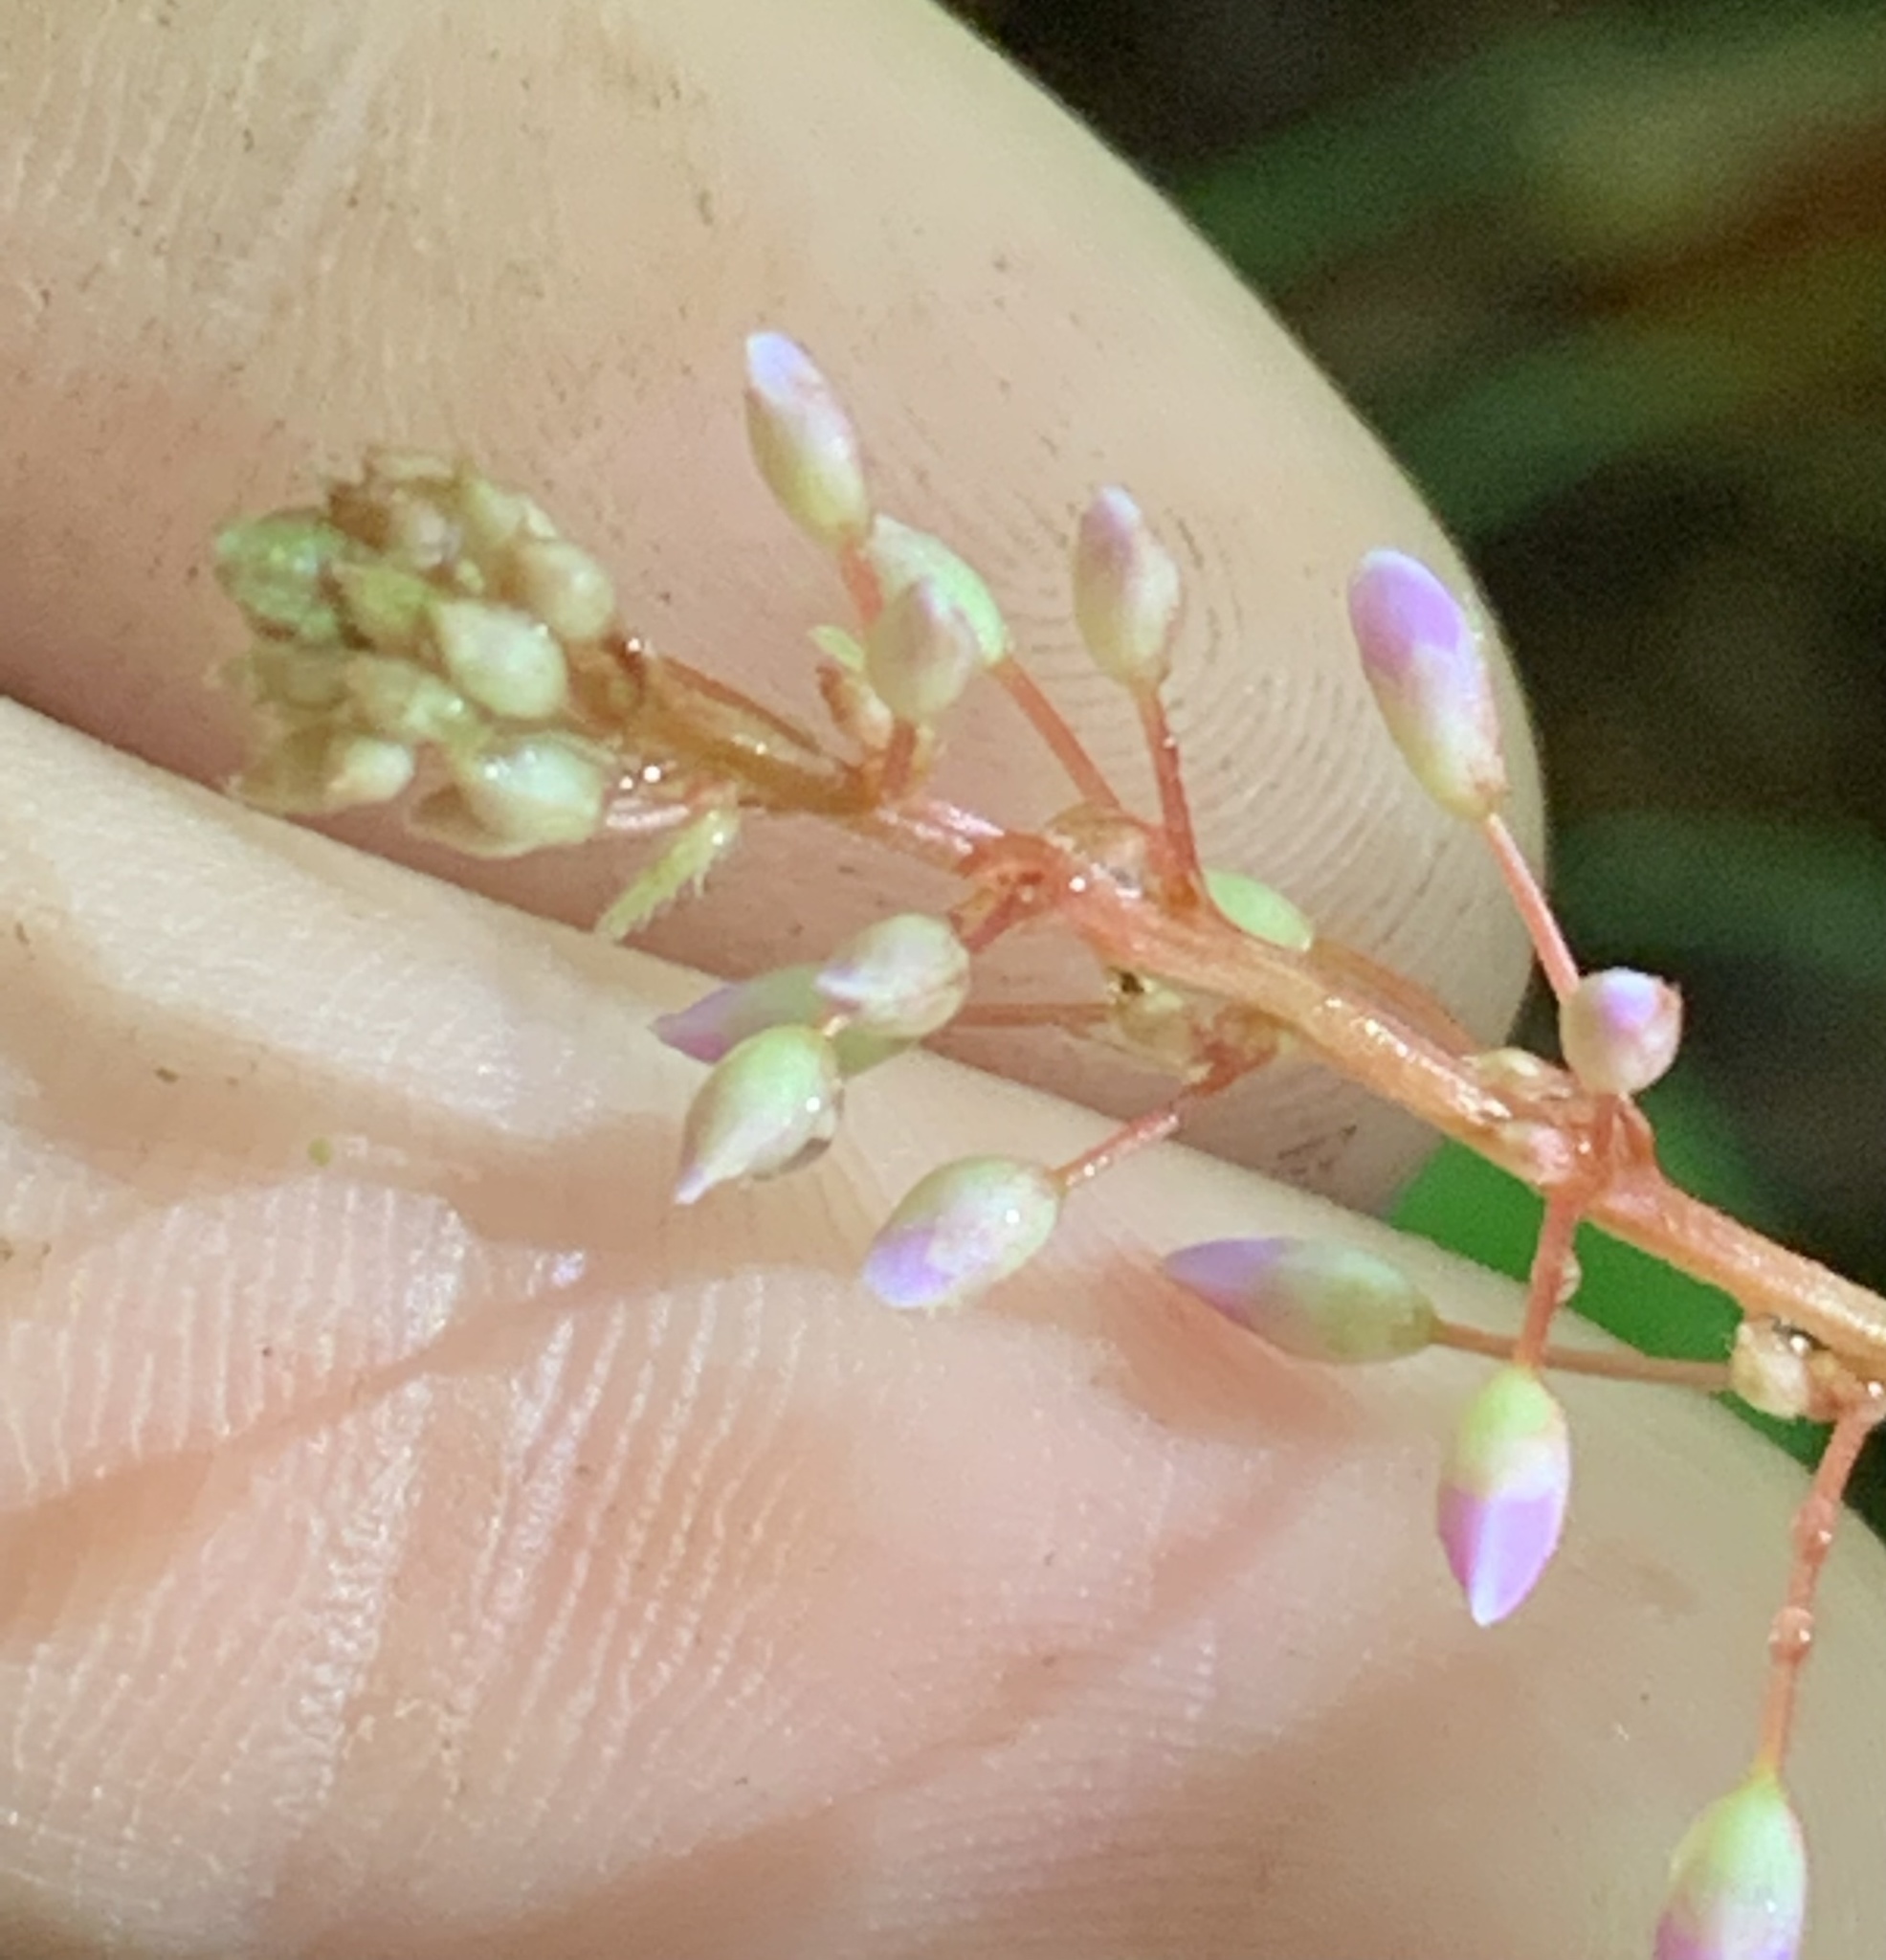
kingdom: Plantae
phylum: Tracheophyta
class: Magnoliopsida
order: Fabales
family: Fabaceae
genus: Hylodesmum
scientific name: Hylodesmum nudiflorum
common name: Bare-stemmed tick-trefoil
